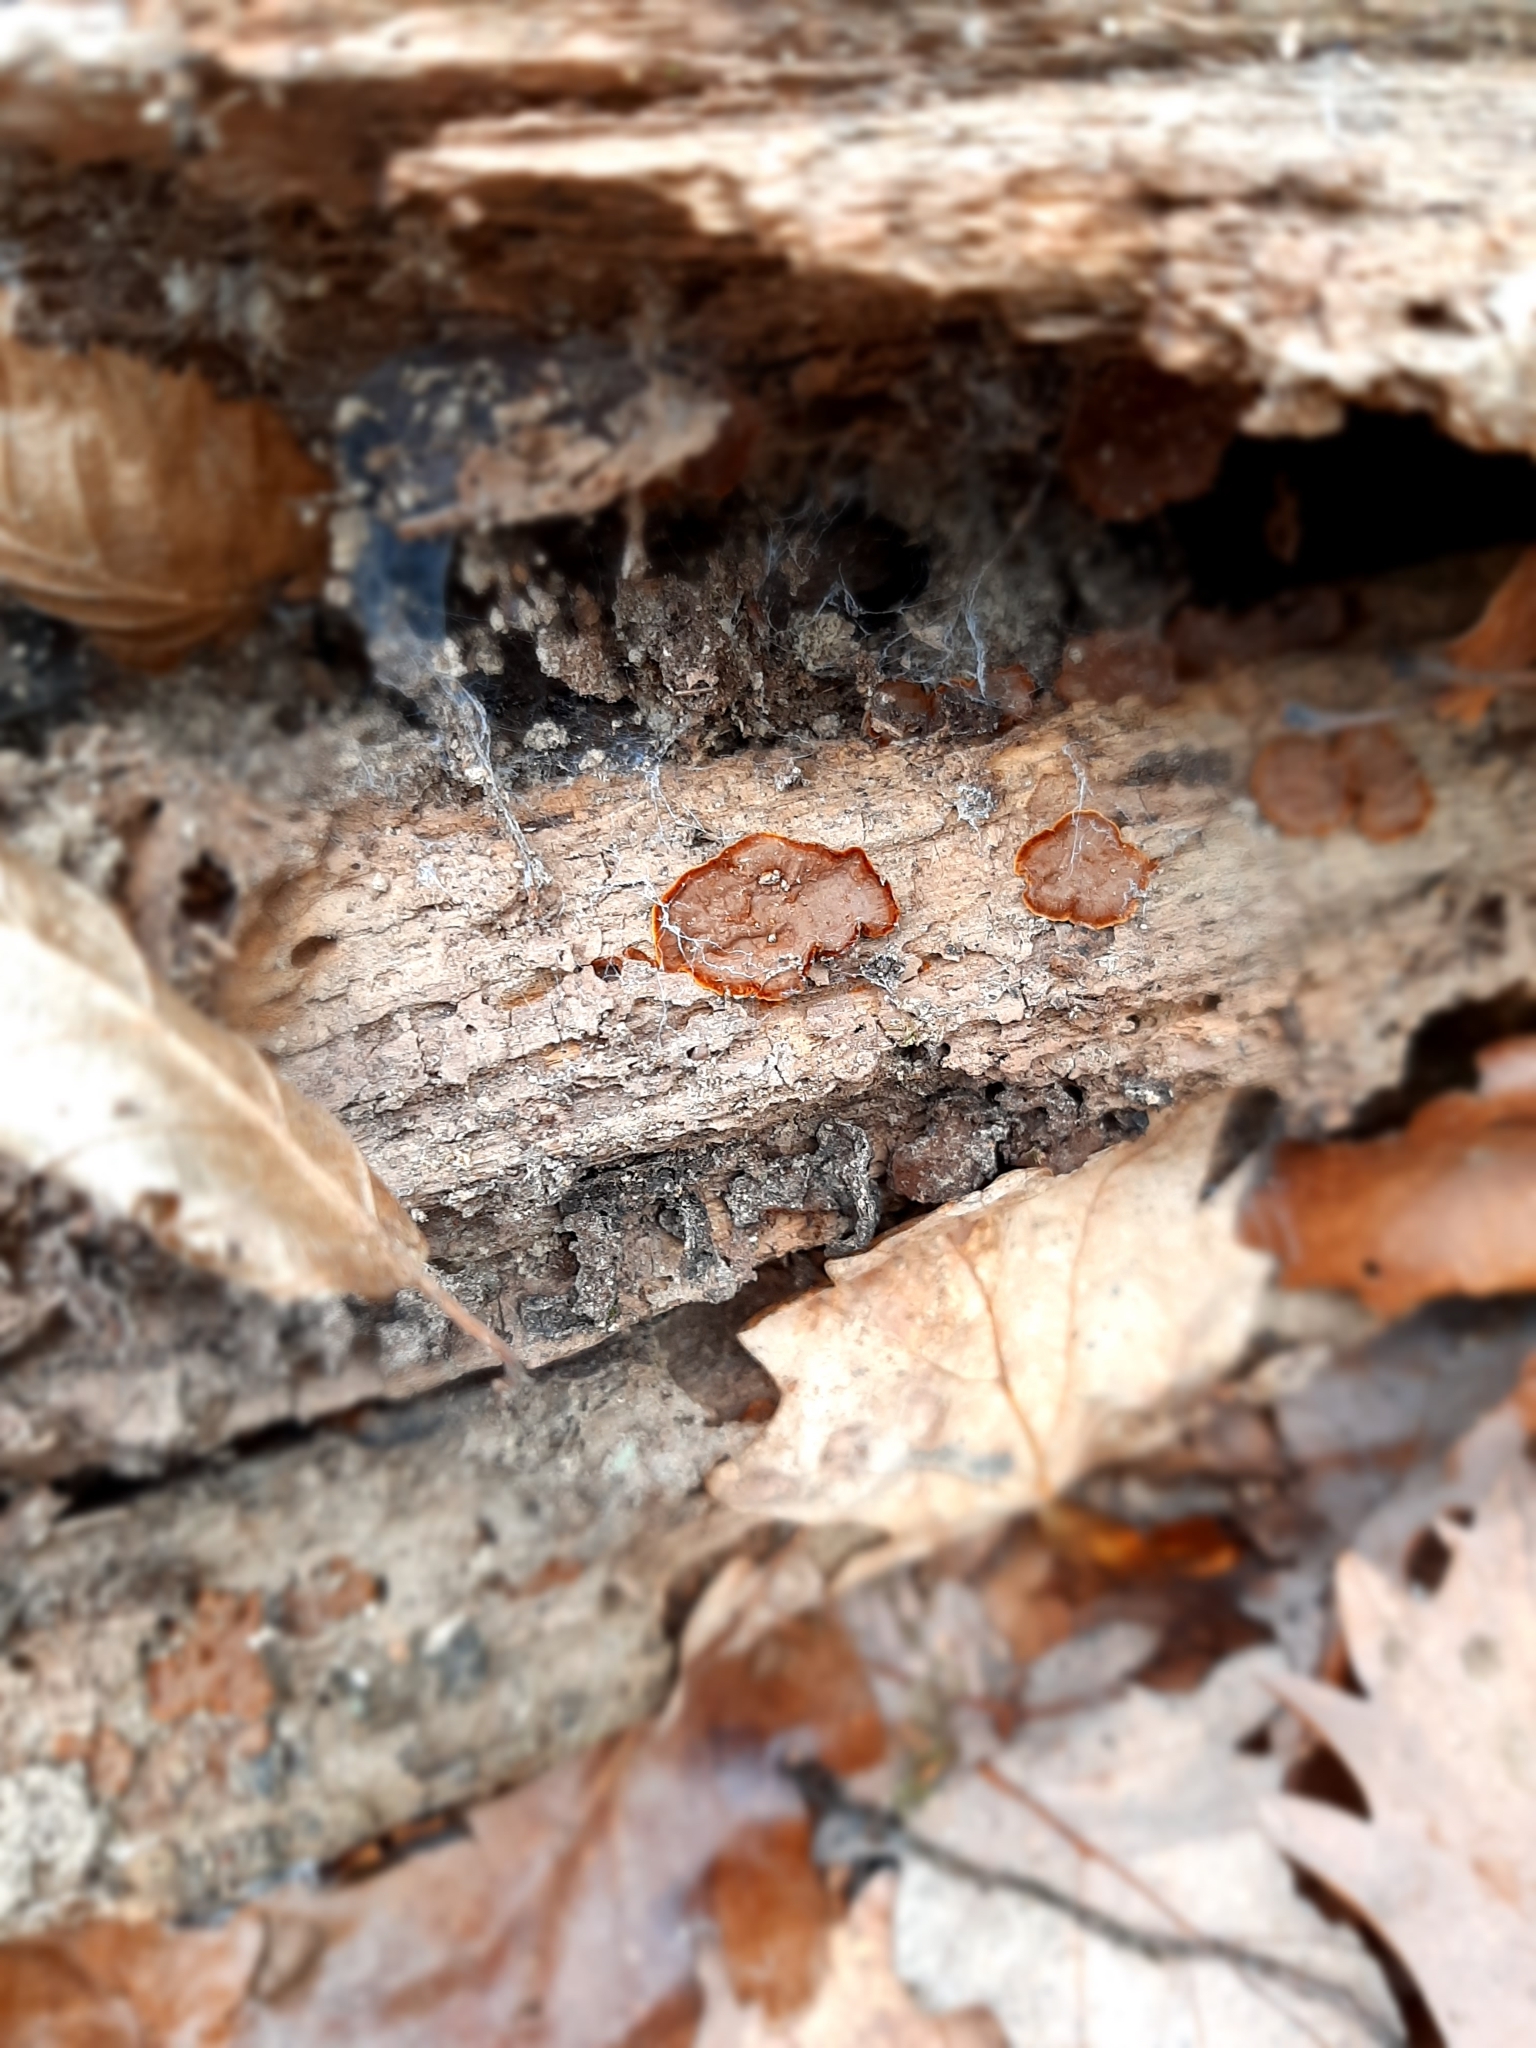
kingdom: Fungi
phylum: Basidiomycota
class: Agaricomycetes
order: Hymenochaetales
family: Hymenochaetaceae
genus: Hymenochaete
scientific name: Hymenochaete rubiginosa
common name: Oak curtain crust
